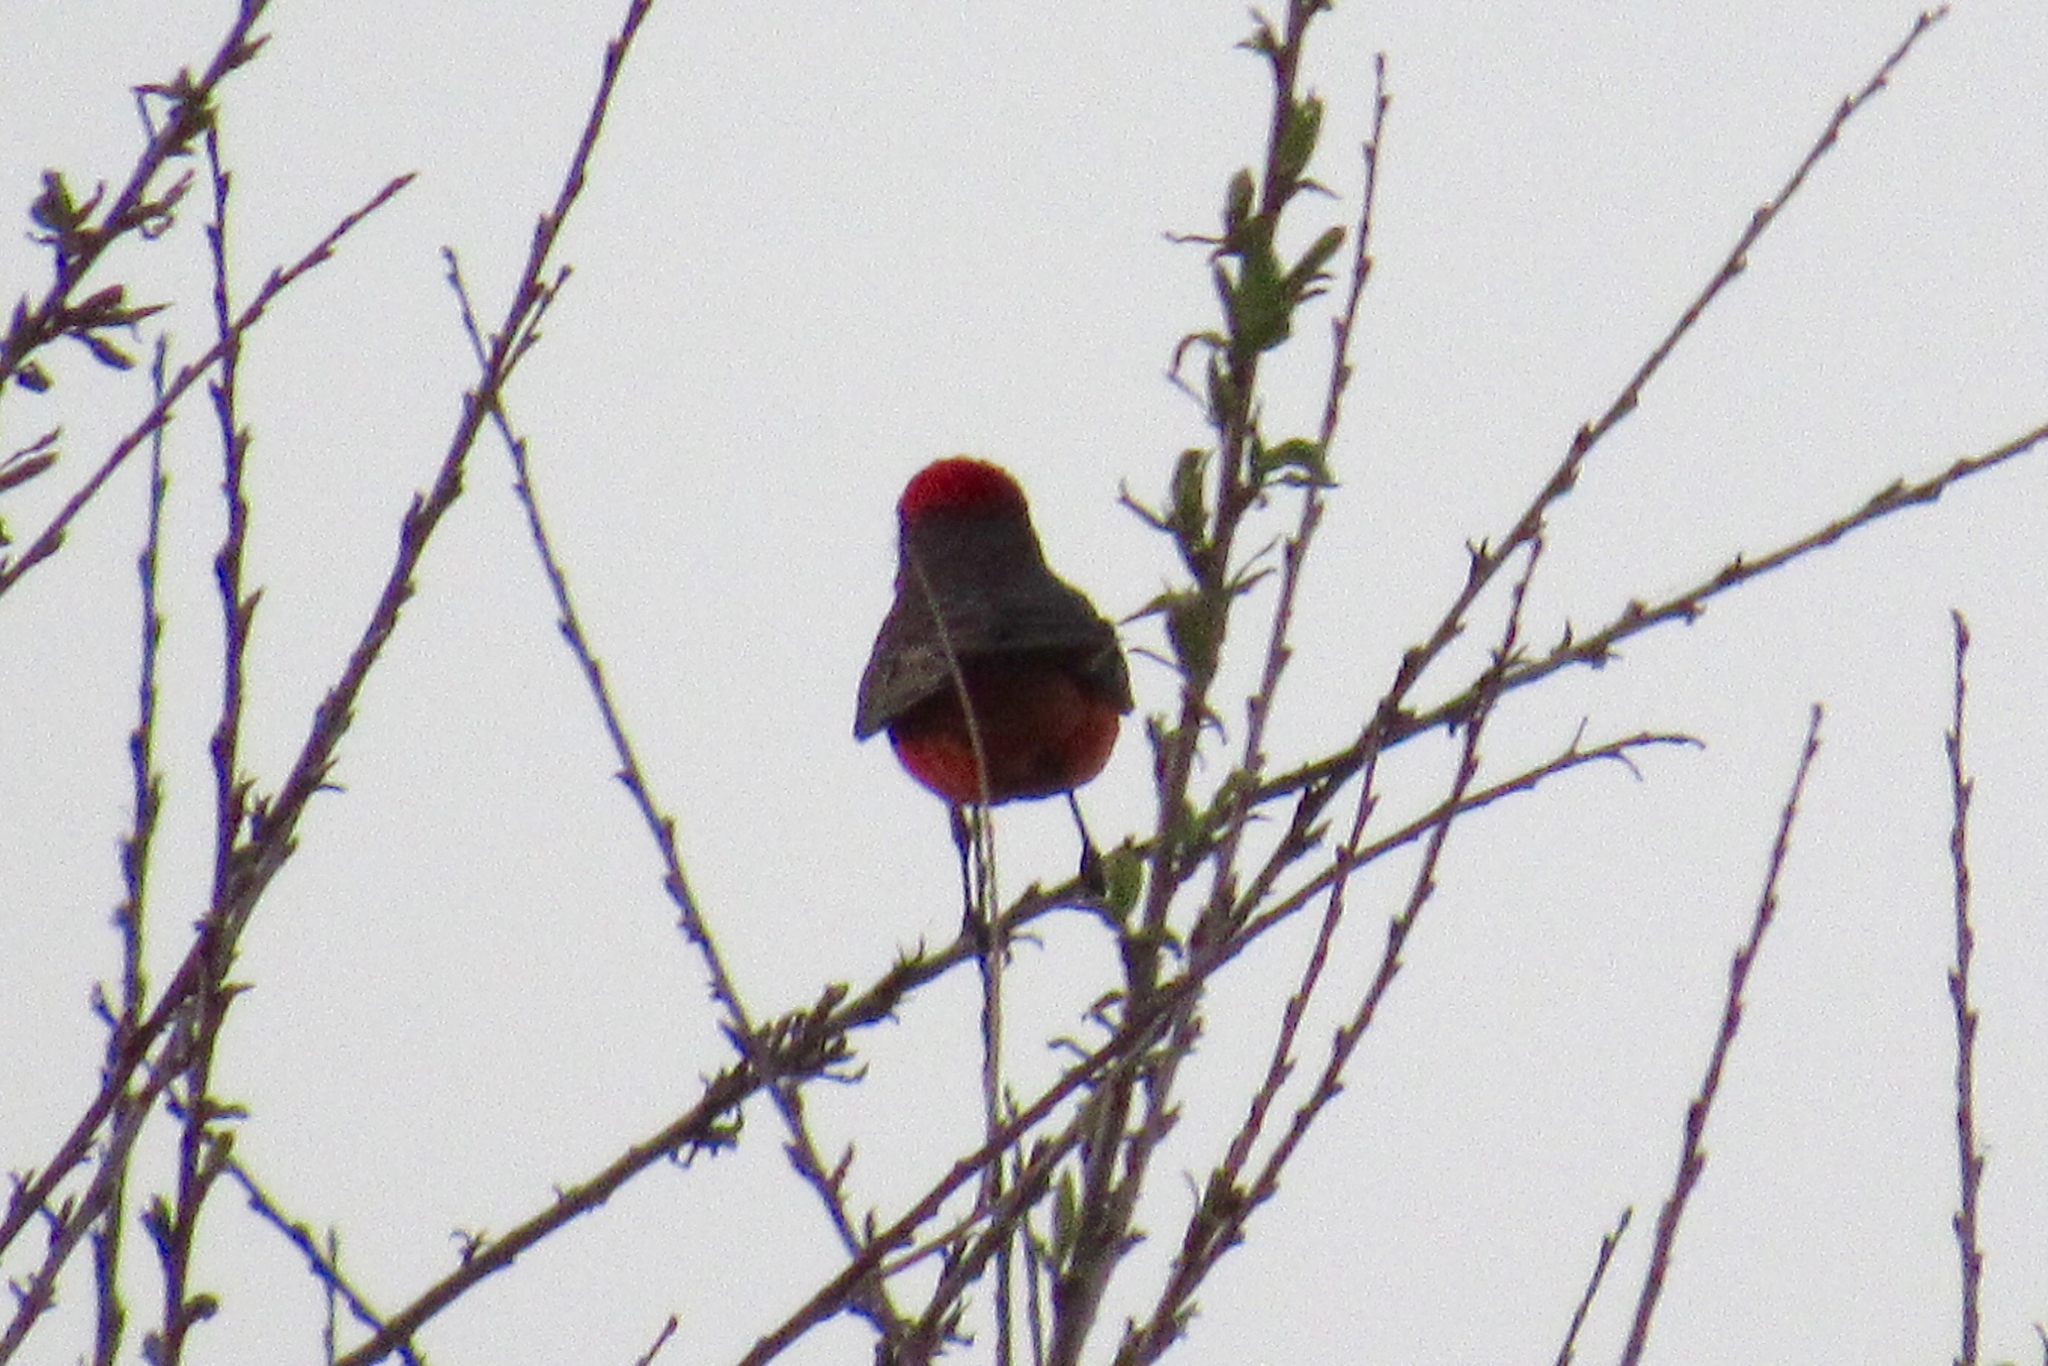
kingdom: Animalia
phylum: Chordata
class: Aves
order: Passeriformes
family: Tyrannidae
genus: Pyrocephalus
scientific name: Pyrocephalus rubinus
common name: Vermilion flycatcher
